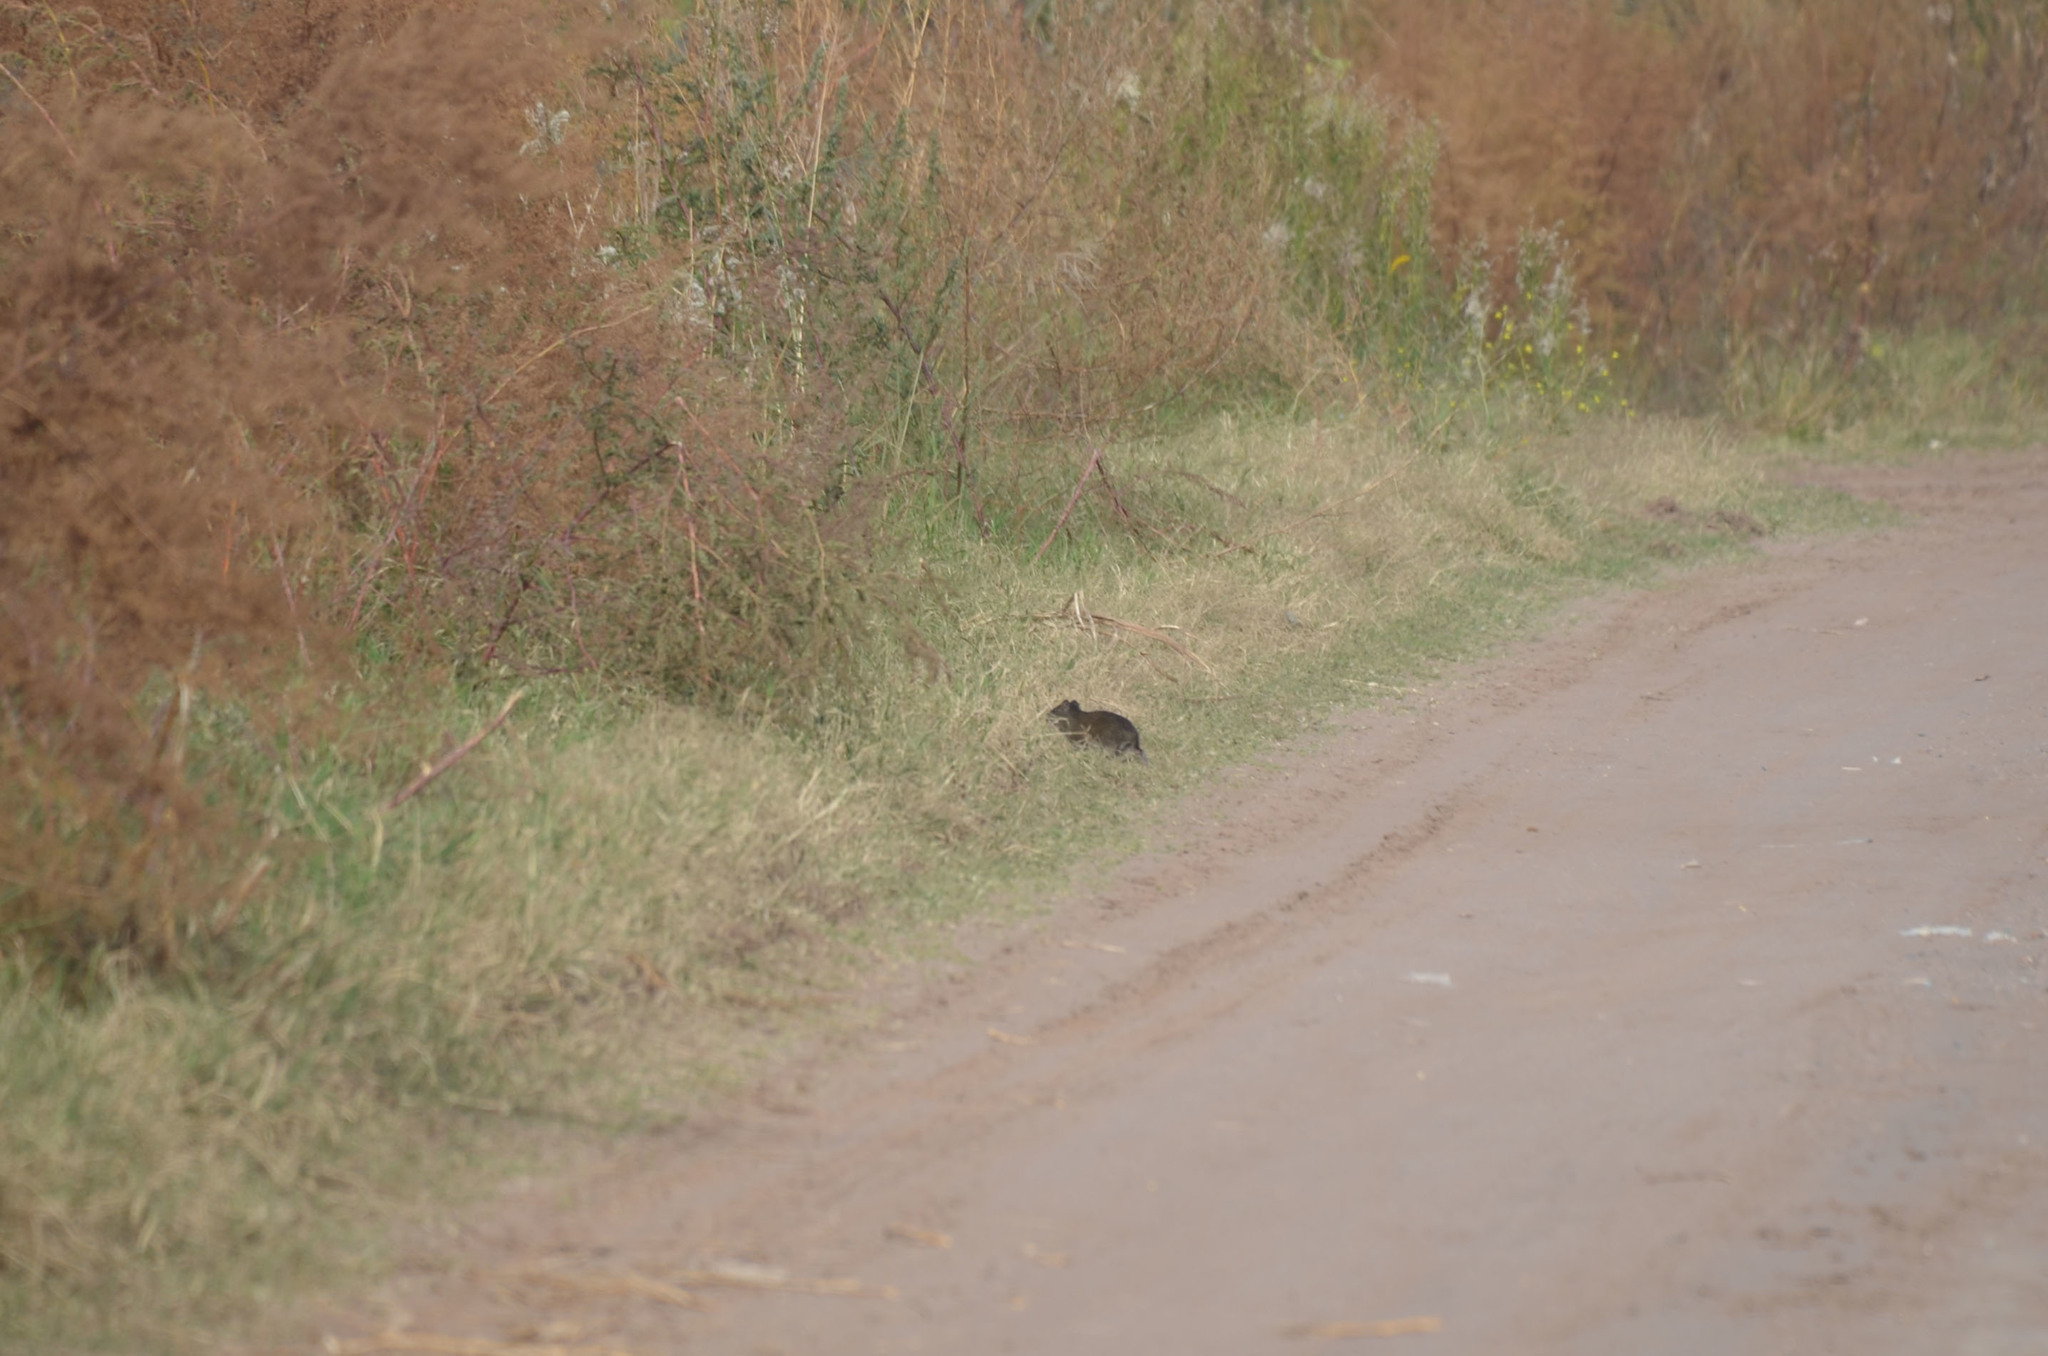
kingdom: Animalia
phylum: Chordata
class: Mammalia
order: Rodentia
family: Caviidae
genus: Cavia
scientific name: Cavia aperea
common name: Brazilian guinea pig
